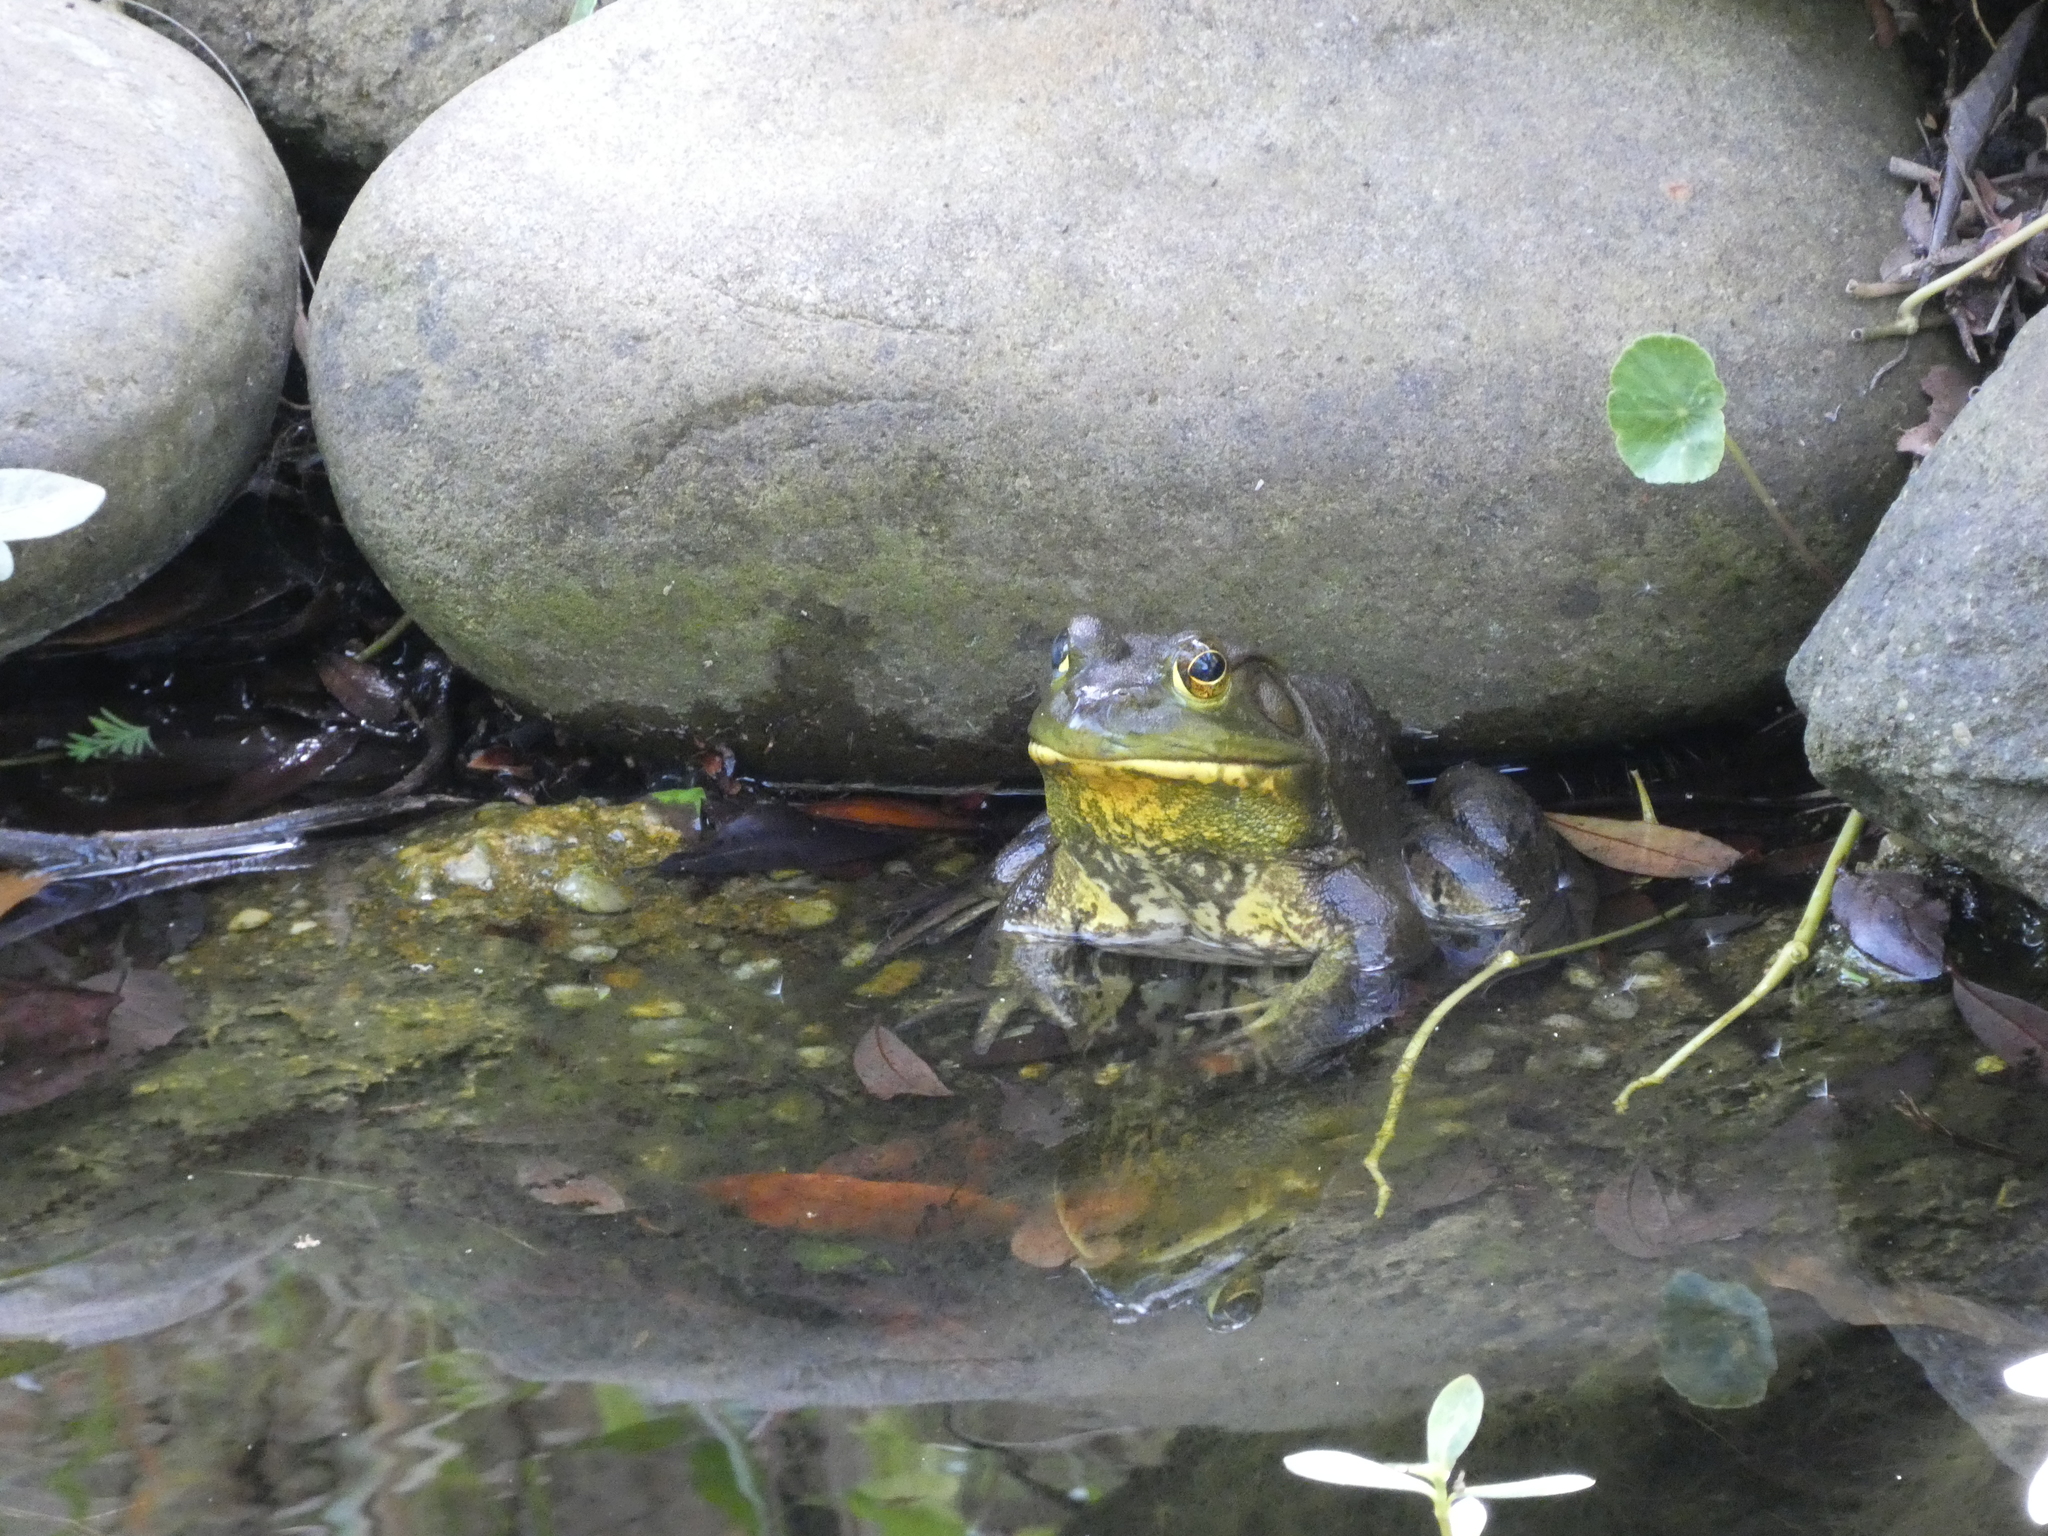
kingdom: Animalia
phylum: Chordata
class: Amphibia
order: Anura
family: Ranidae
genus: Lithobates
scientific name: Lithobates catesbeianus
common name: American bullfrog
